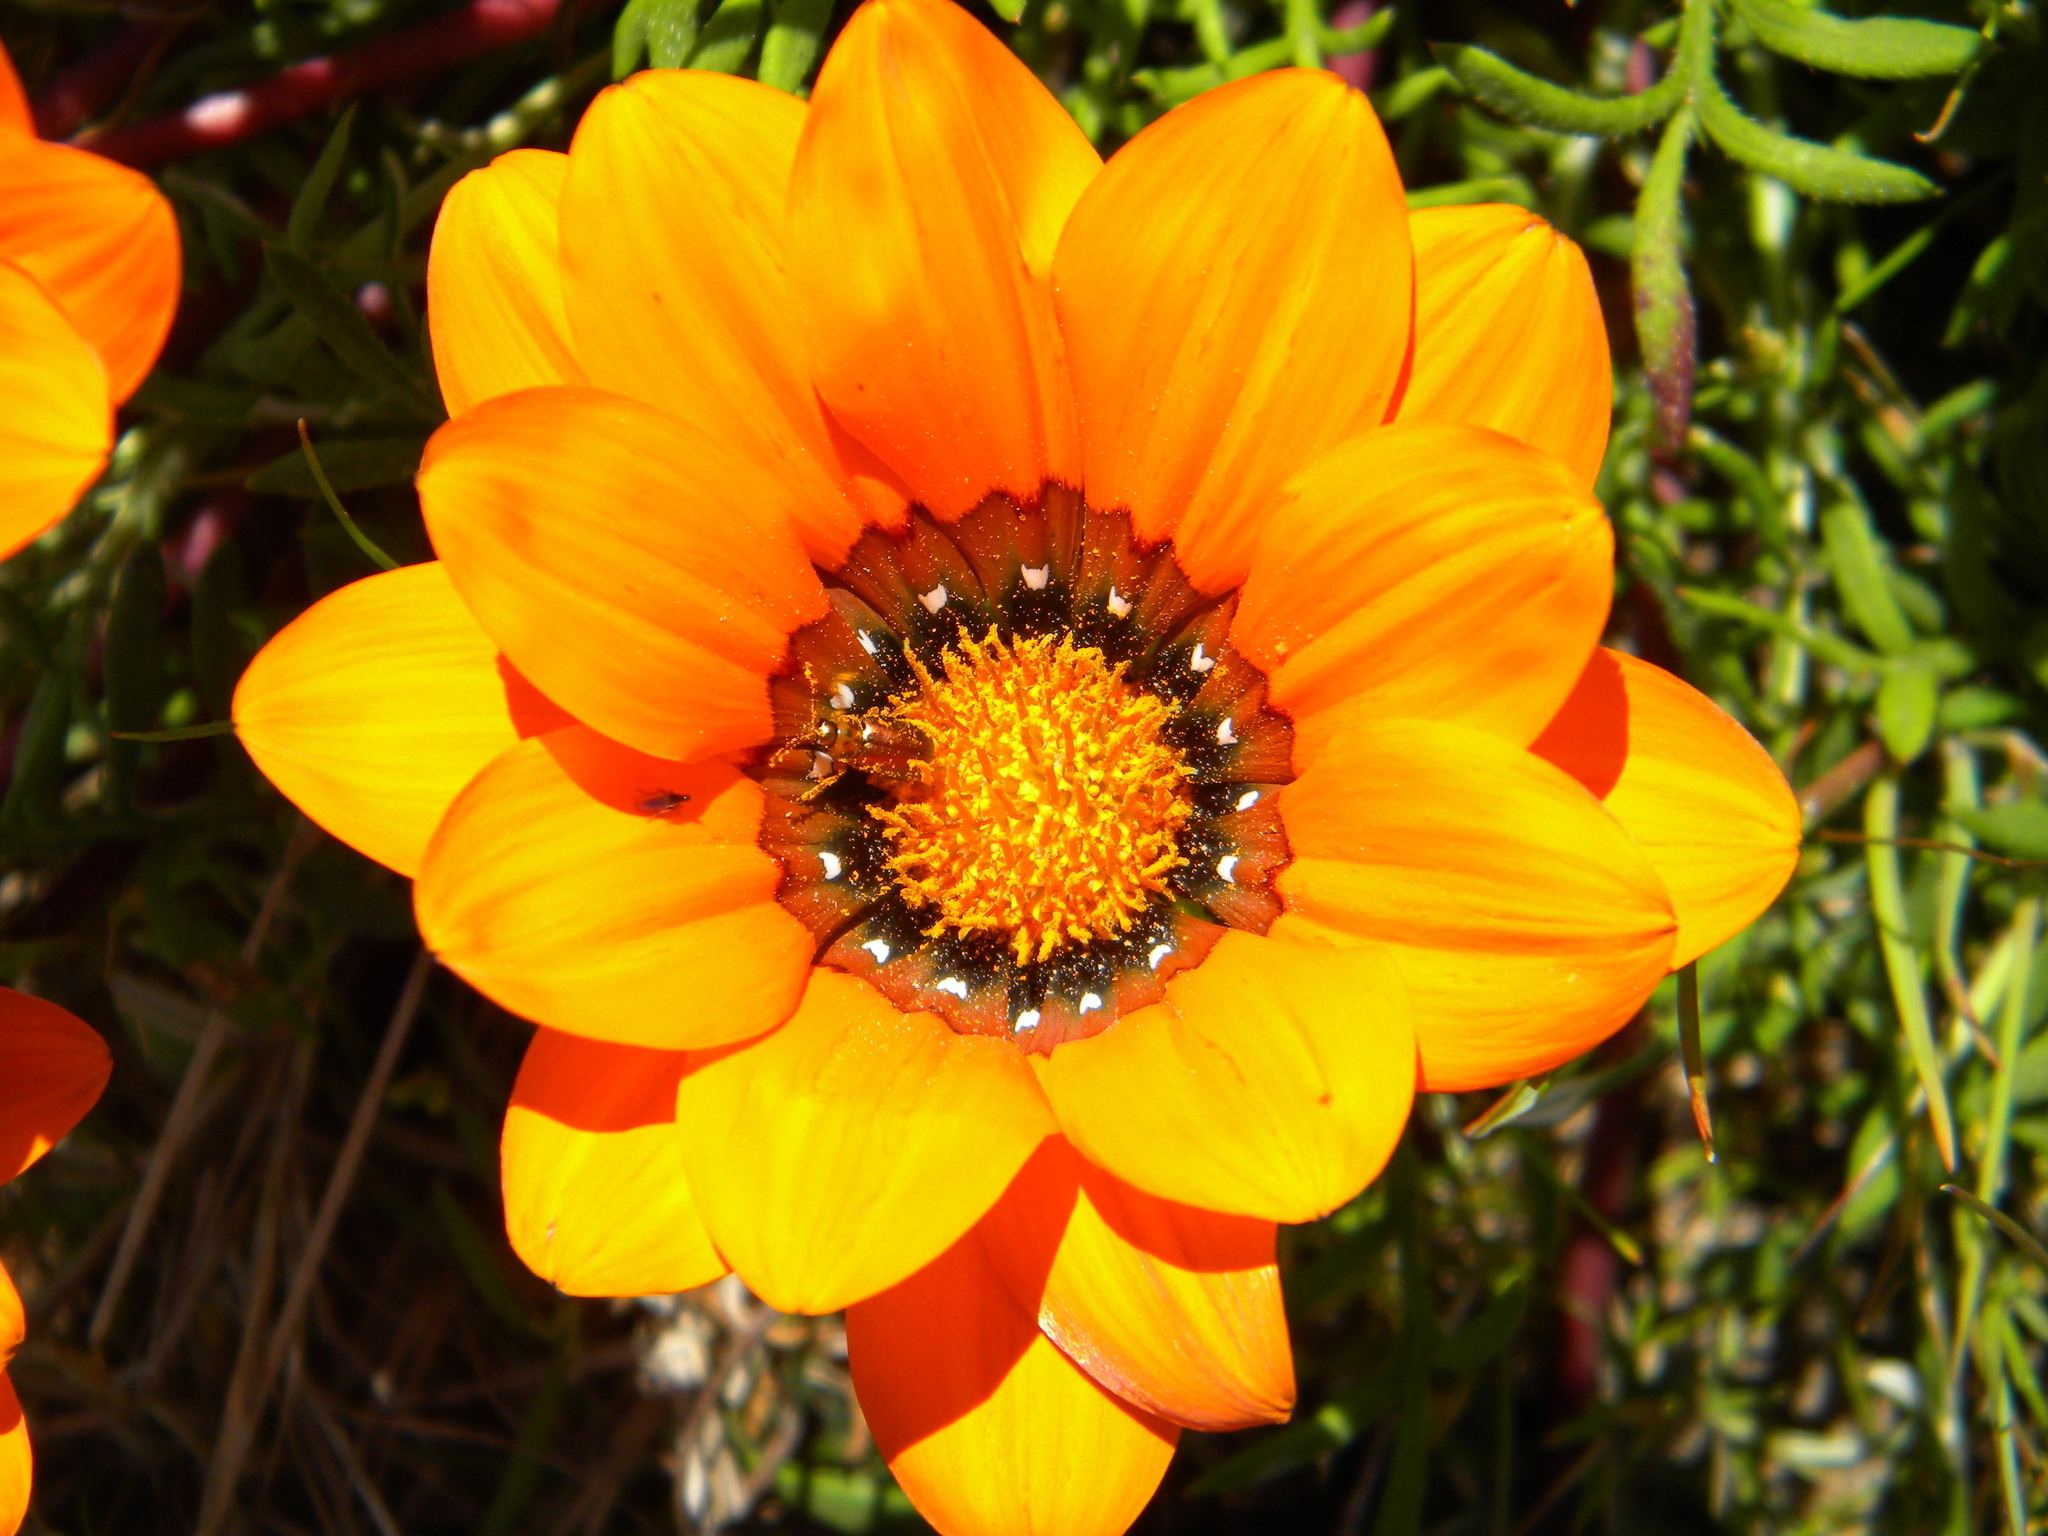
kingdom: Plantae
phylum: Tracheophyta
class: Magnoliopsida
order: Asterales
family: Asteraceae
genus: Gazania
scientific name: Gazania pectinata
